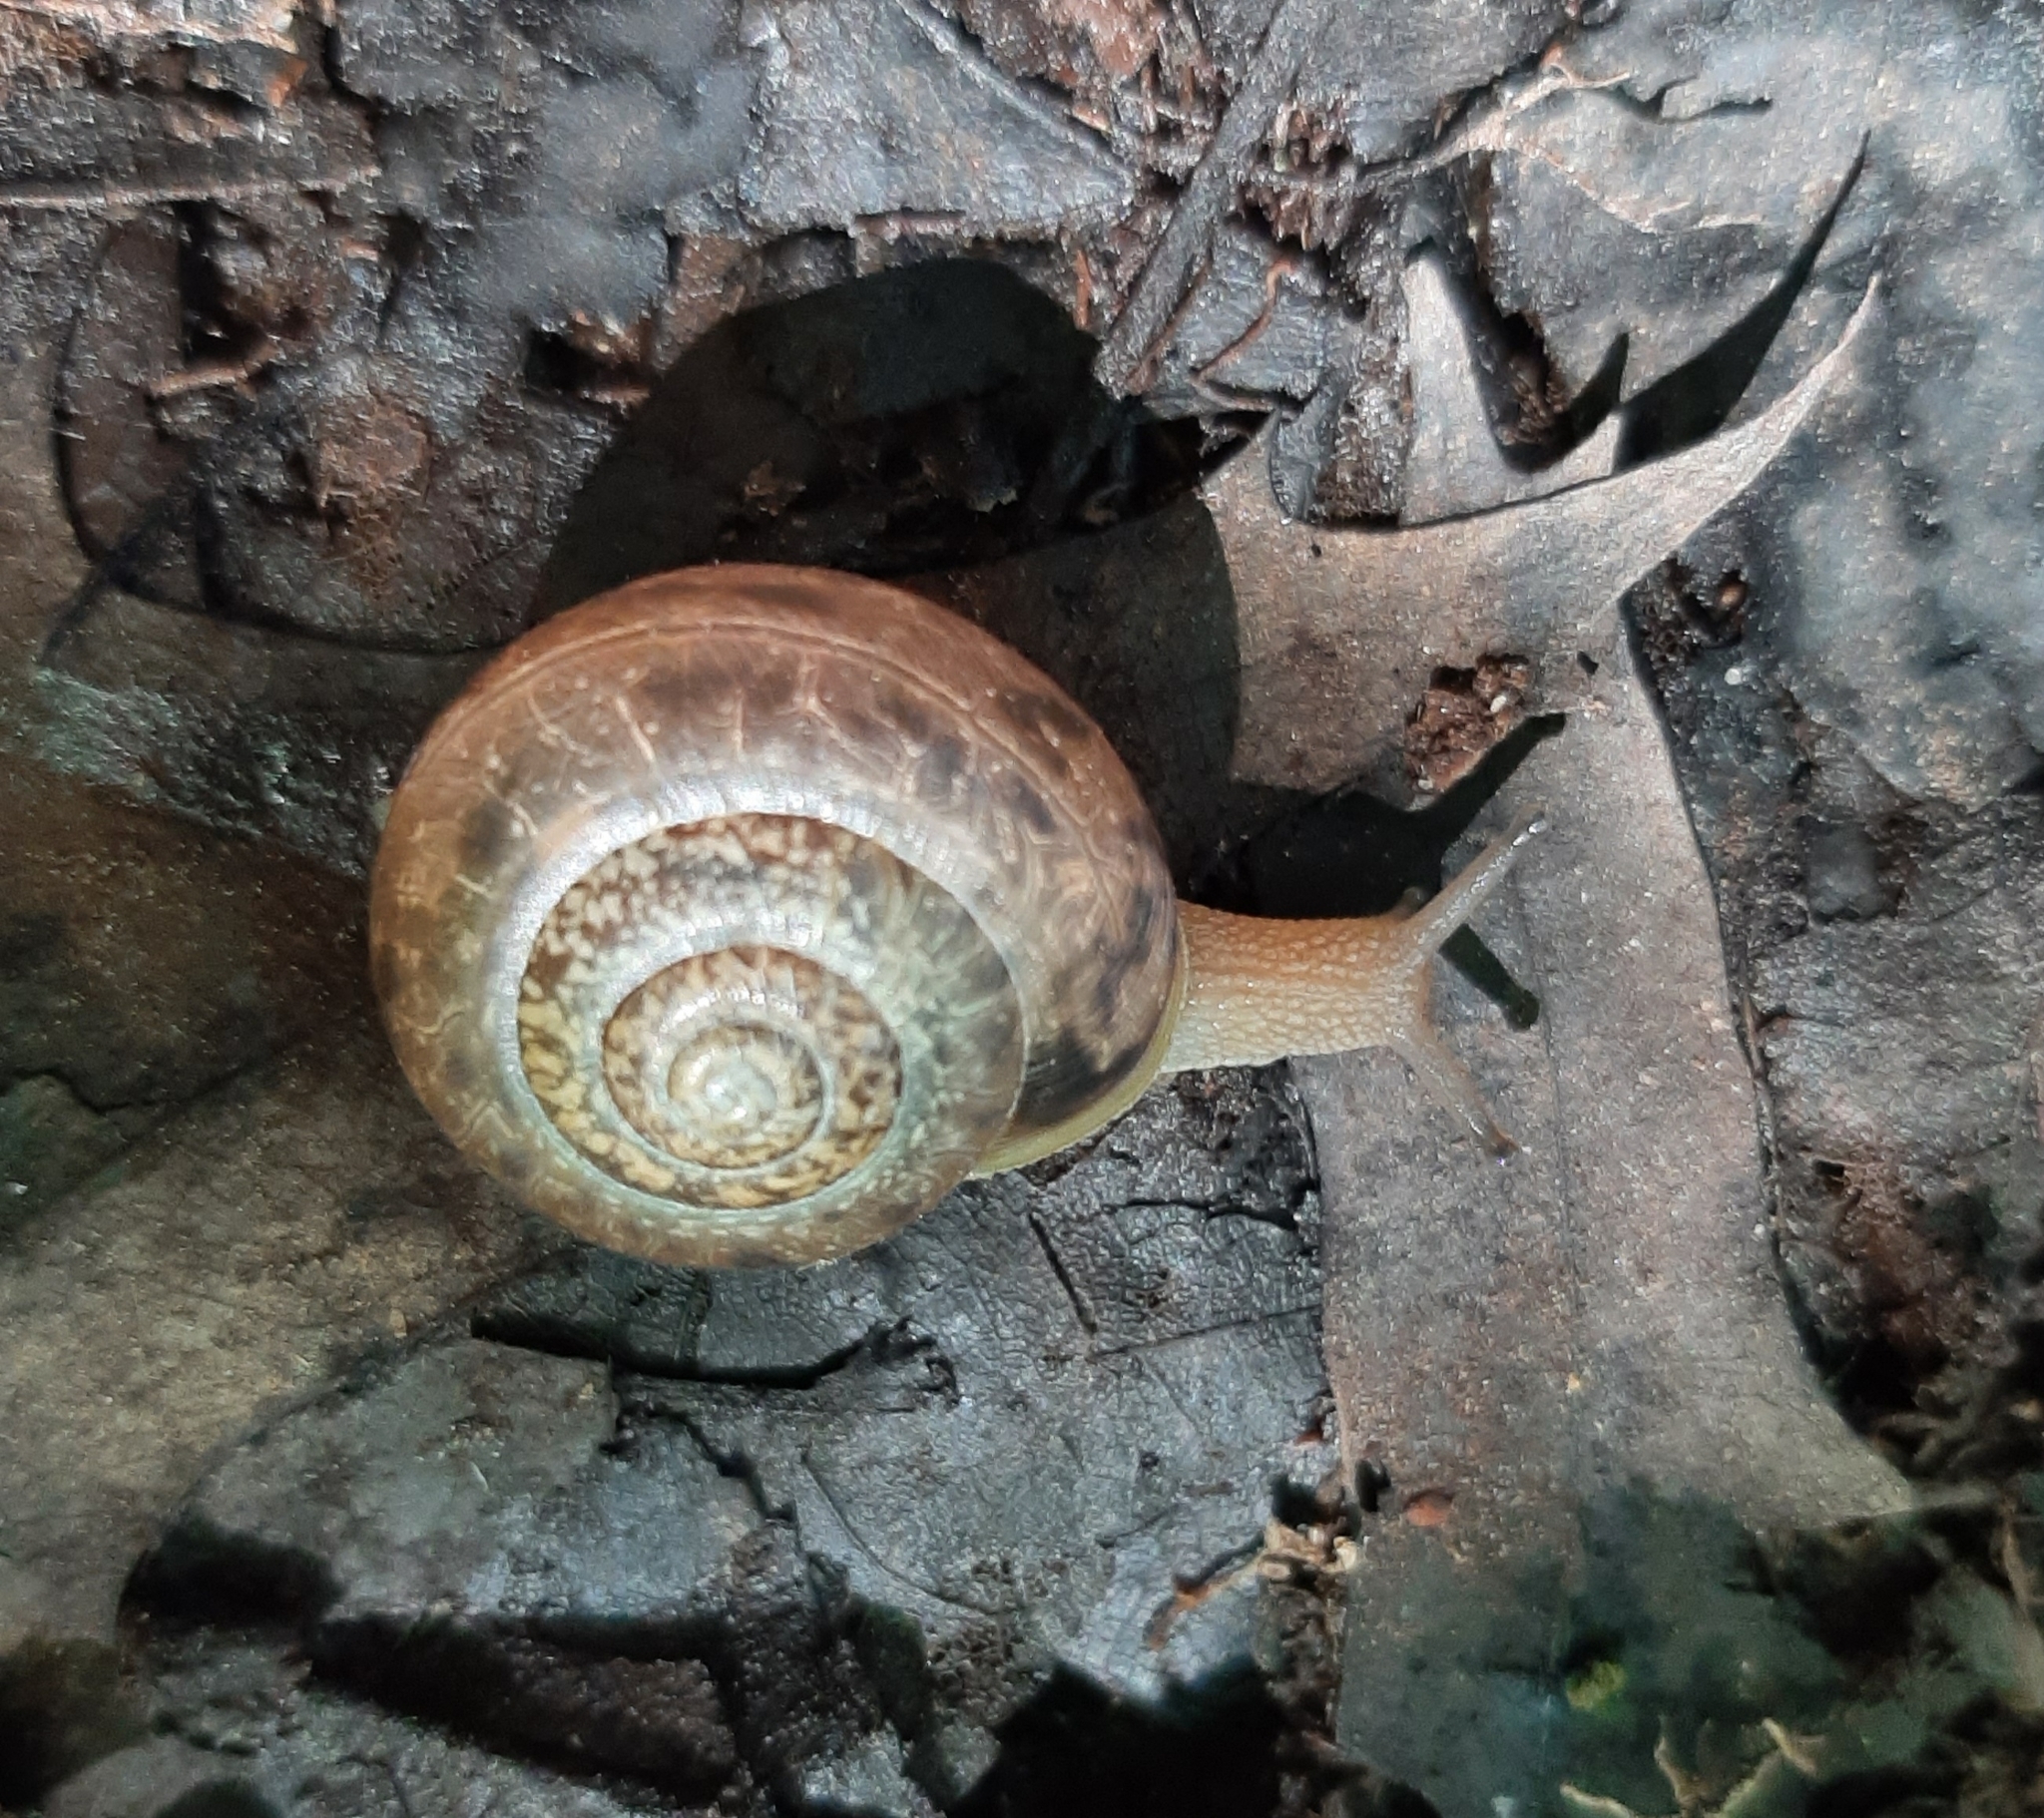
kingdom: Animalia
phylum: Mollusca
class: Gastropoda
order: Stylommatophora
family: Polygyridae
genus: Neohelix
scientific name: Neohelix albolabris
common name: Eastern whitelip
